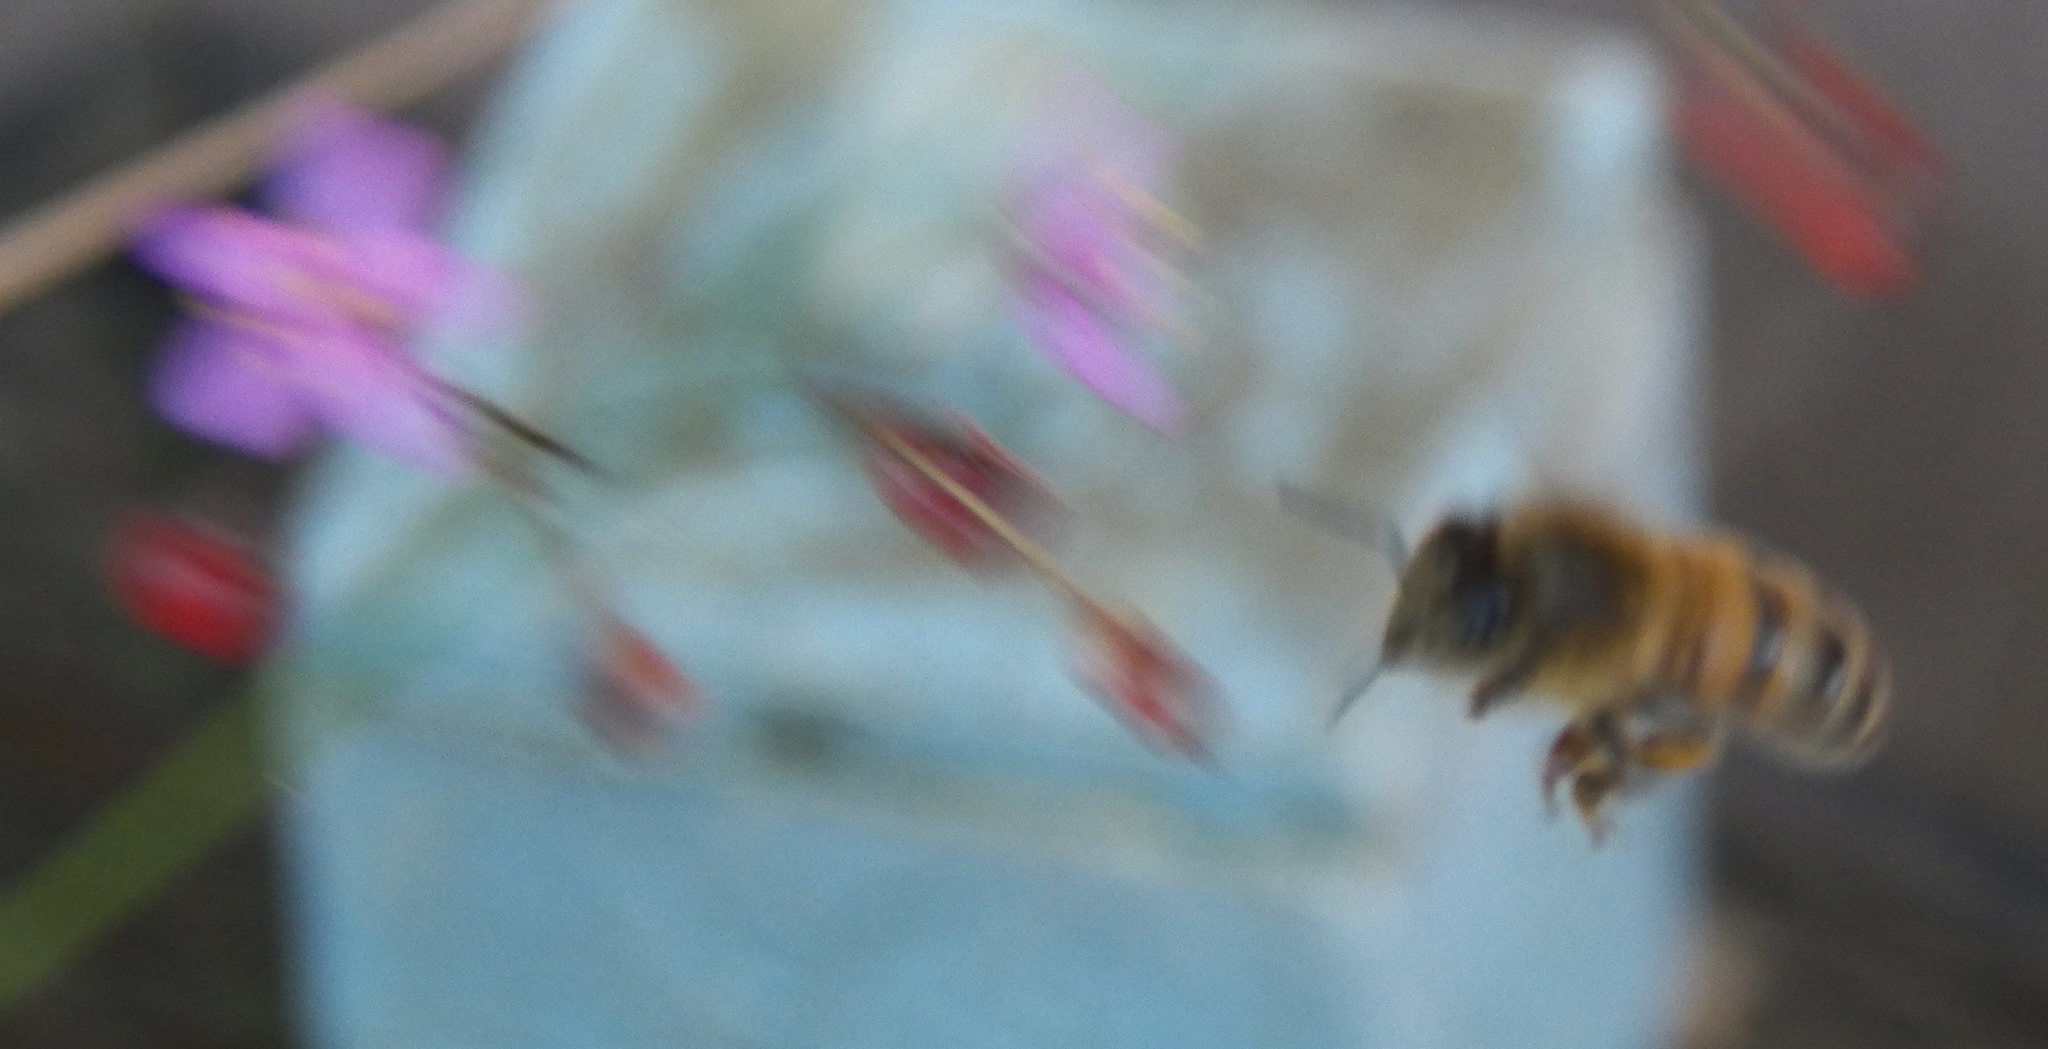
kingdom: Animalia
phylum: Arthropoda
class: Insecta
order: Hymenoptera
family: Apidae
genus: Apis
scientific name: Apis mellifera
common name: Honey bee
